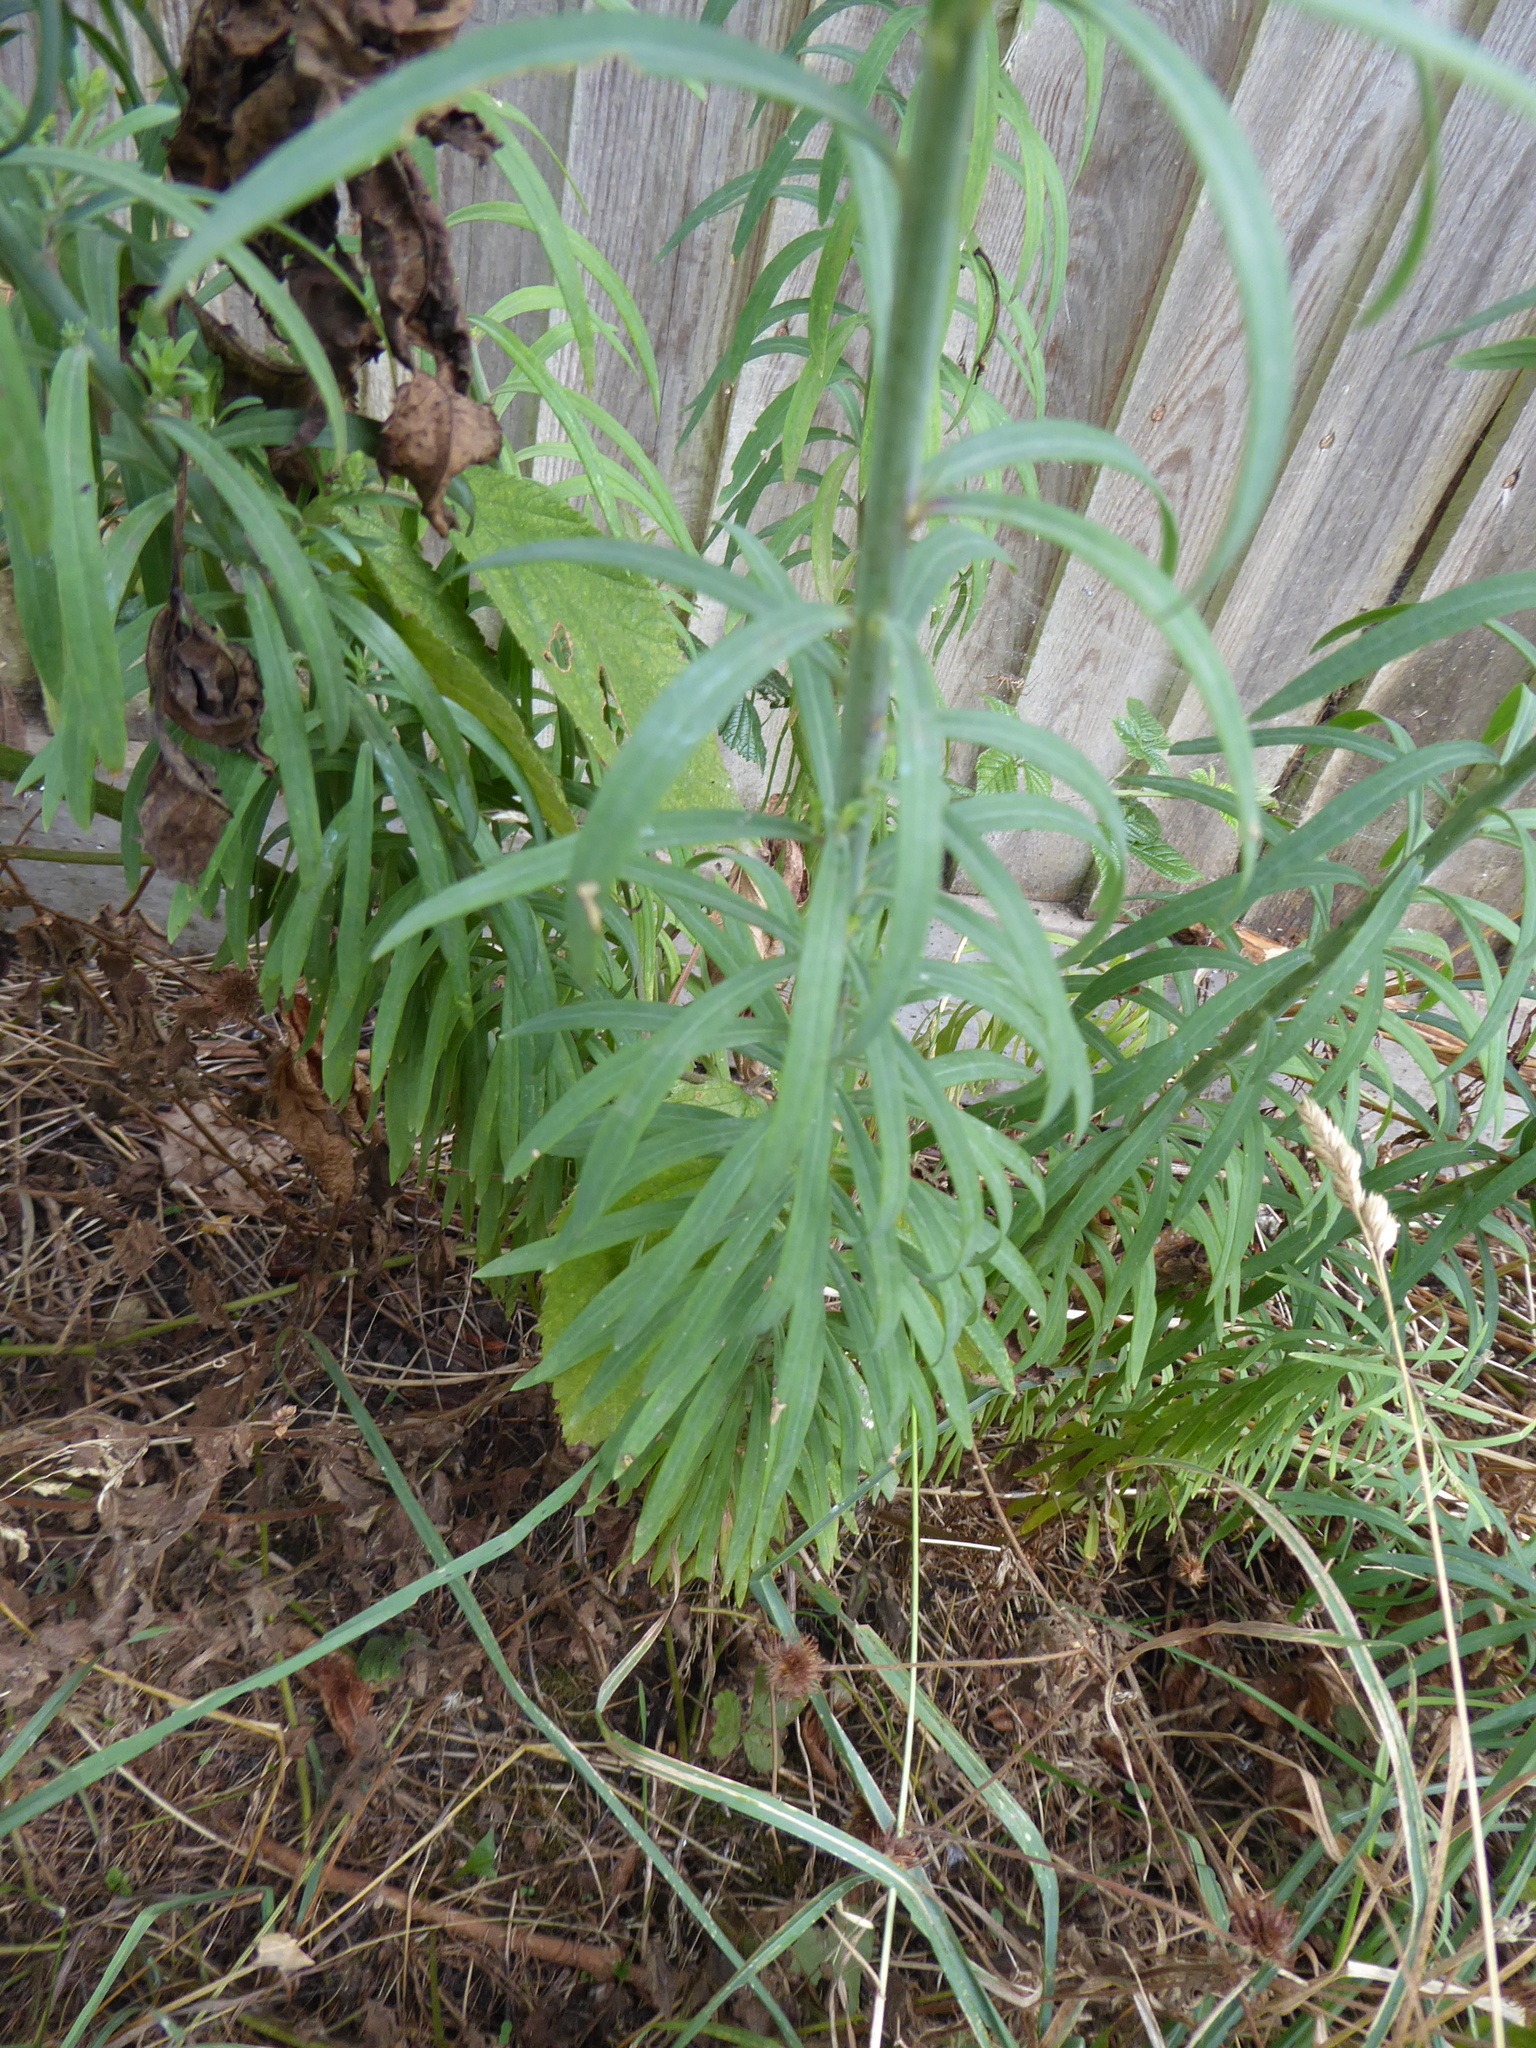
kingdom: Plantae
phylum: Tracheophyta
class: Magnoliopsida
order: Lamiales
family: Plantaginaceae
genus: Linaria
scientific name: Linaria purpurea
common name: Purple toadflax
